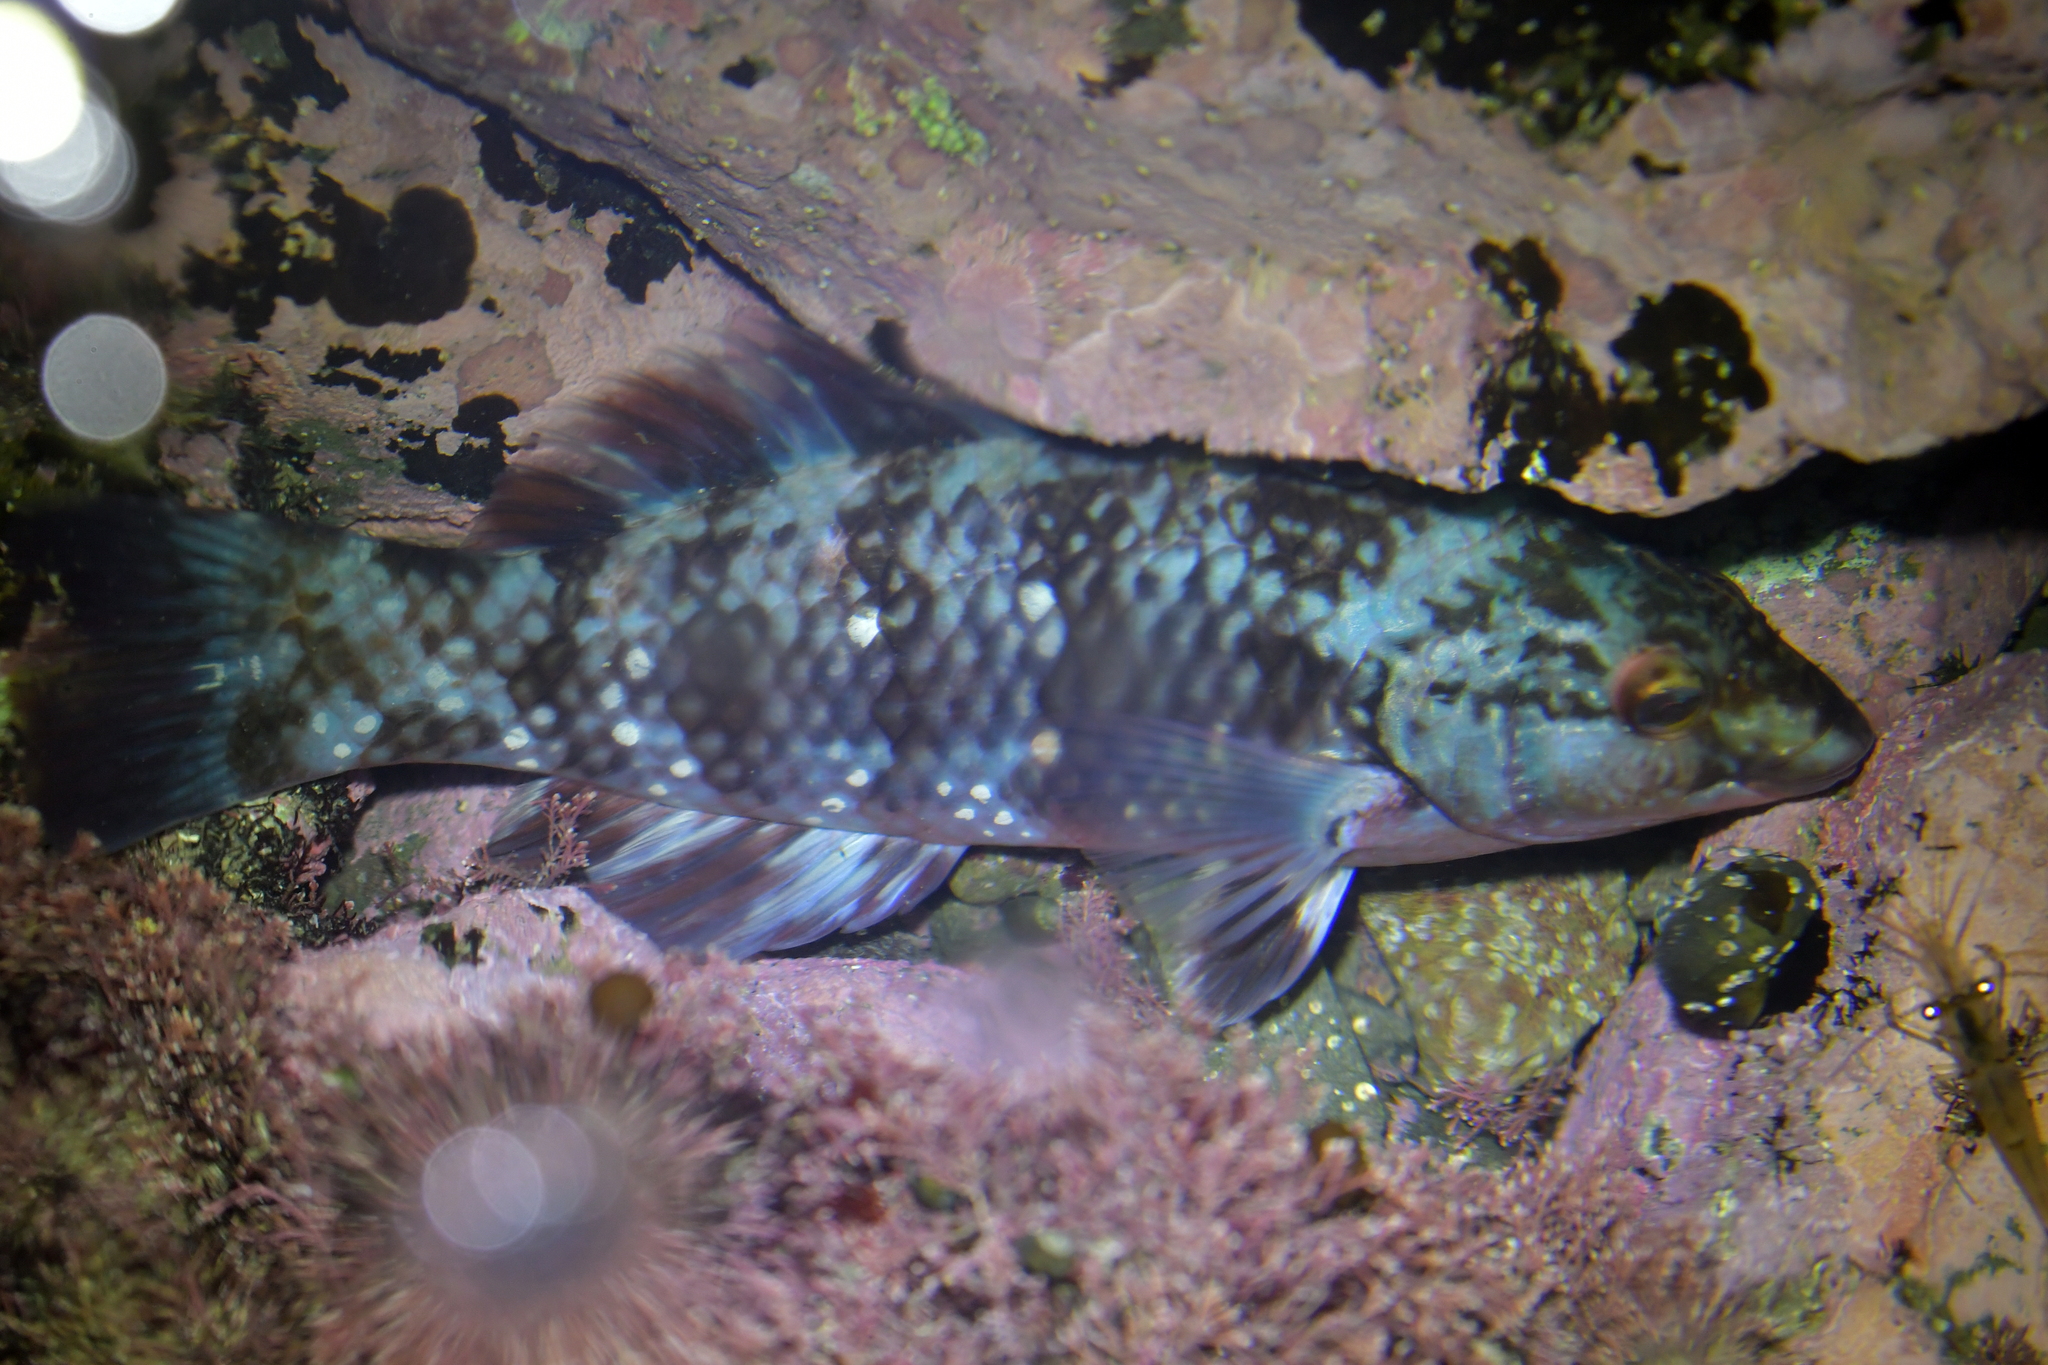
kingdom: Animalia
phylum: Chordata
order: Perciformes
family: Labridae
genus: Notolabrus
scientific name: Notolabrus fucicola
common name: Banded parrotfish
